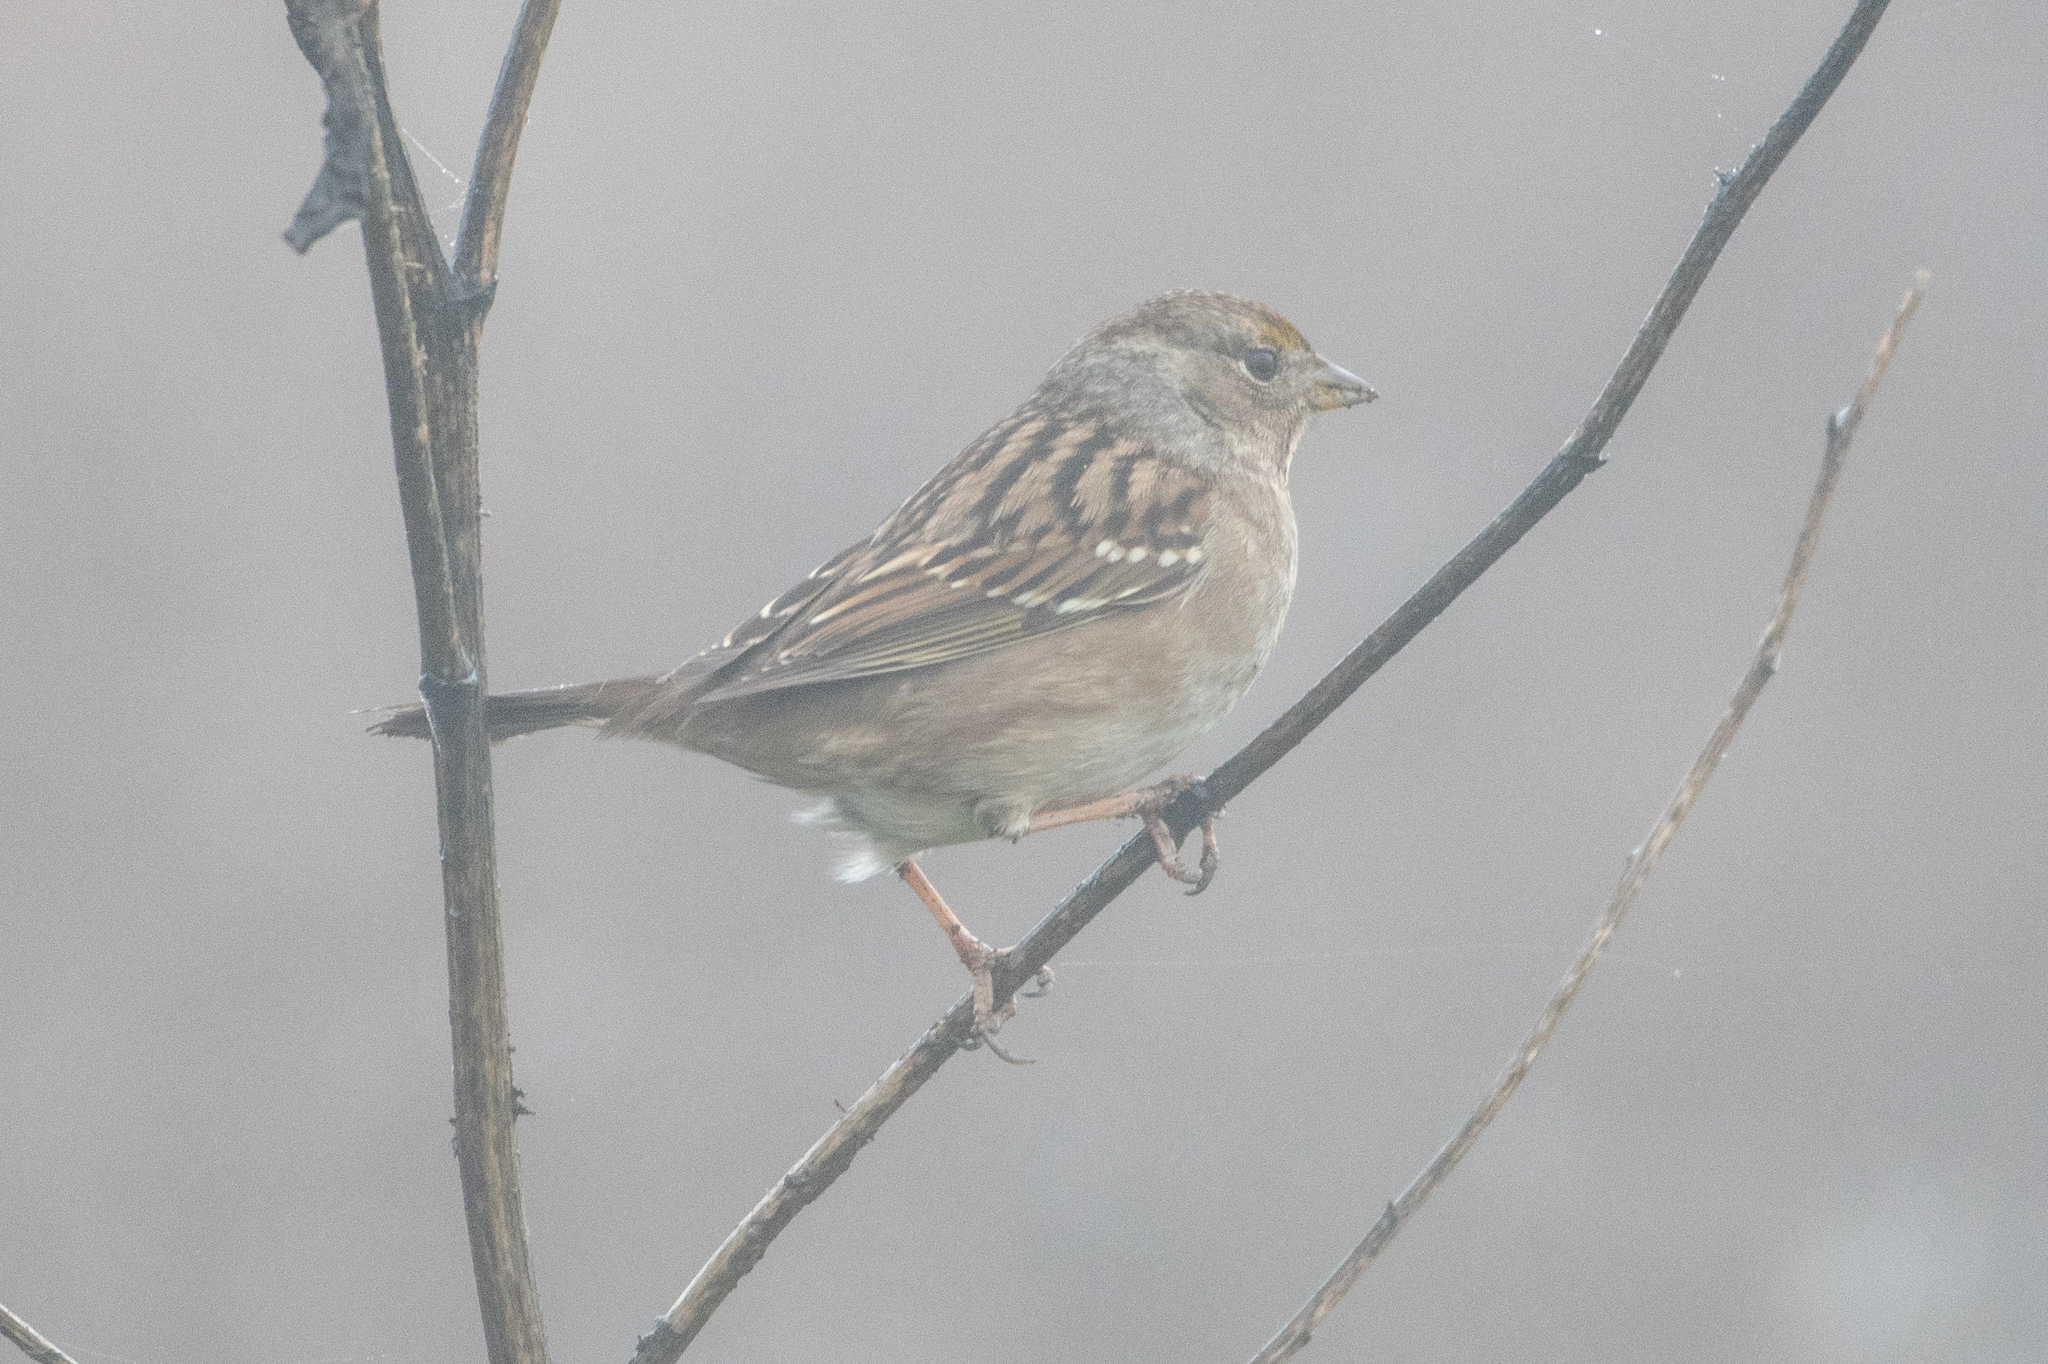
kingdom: Animalia
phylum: Chordata
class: Aves
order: Passeriformes
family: Passerellidae
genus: Zonotrichia
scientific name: Zonotrichia atricapilla
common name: Golden-crowned sparrow
